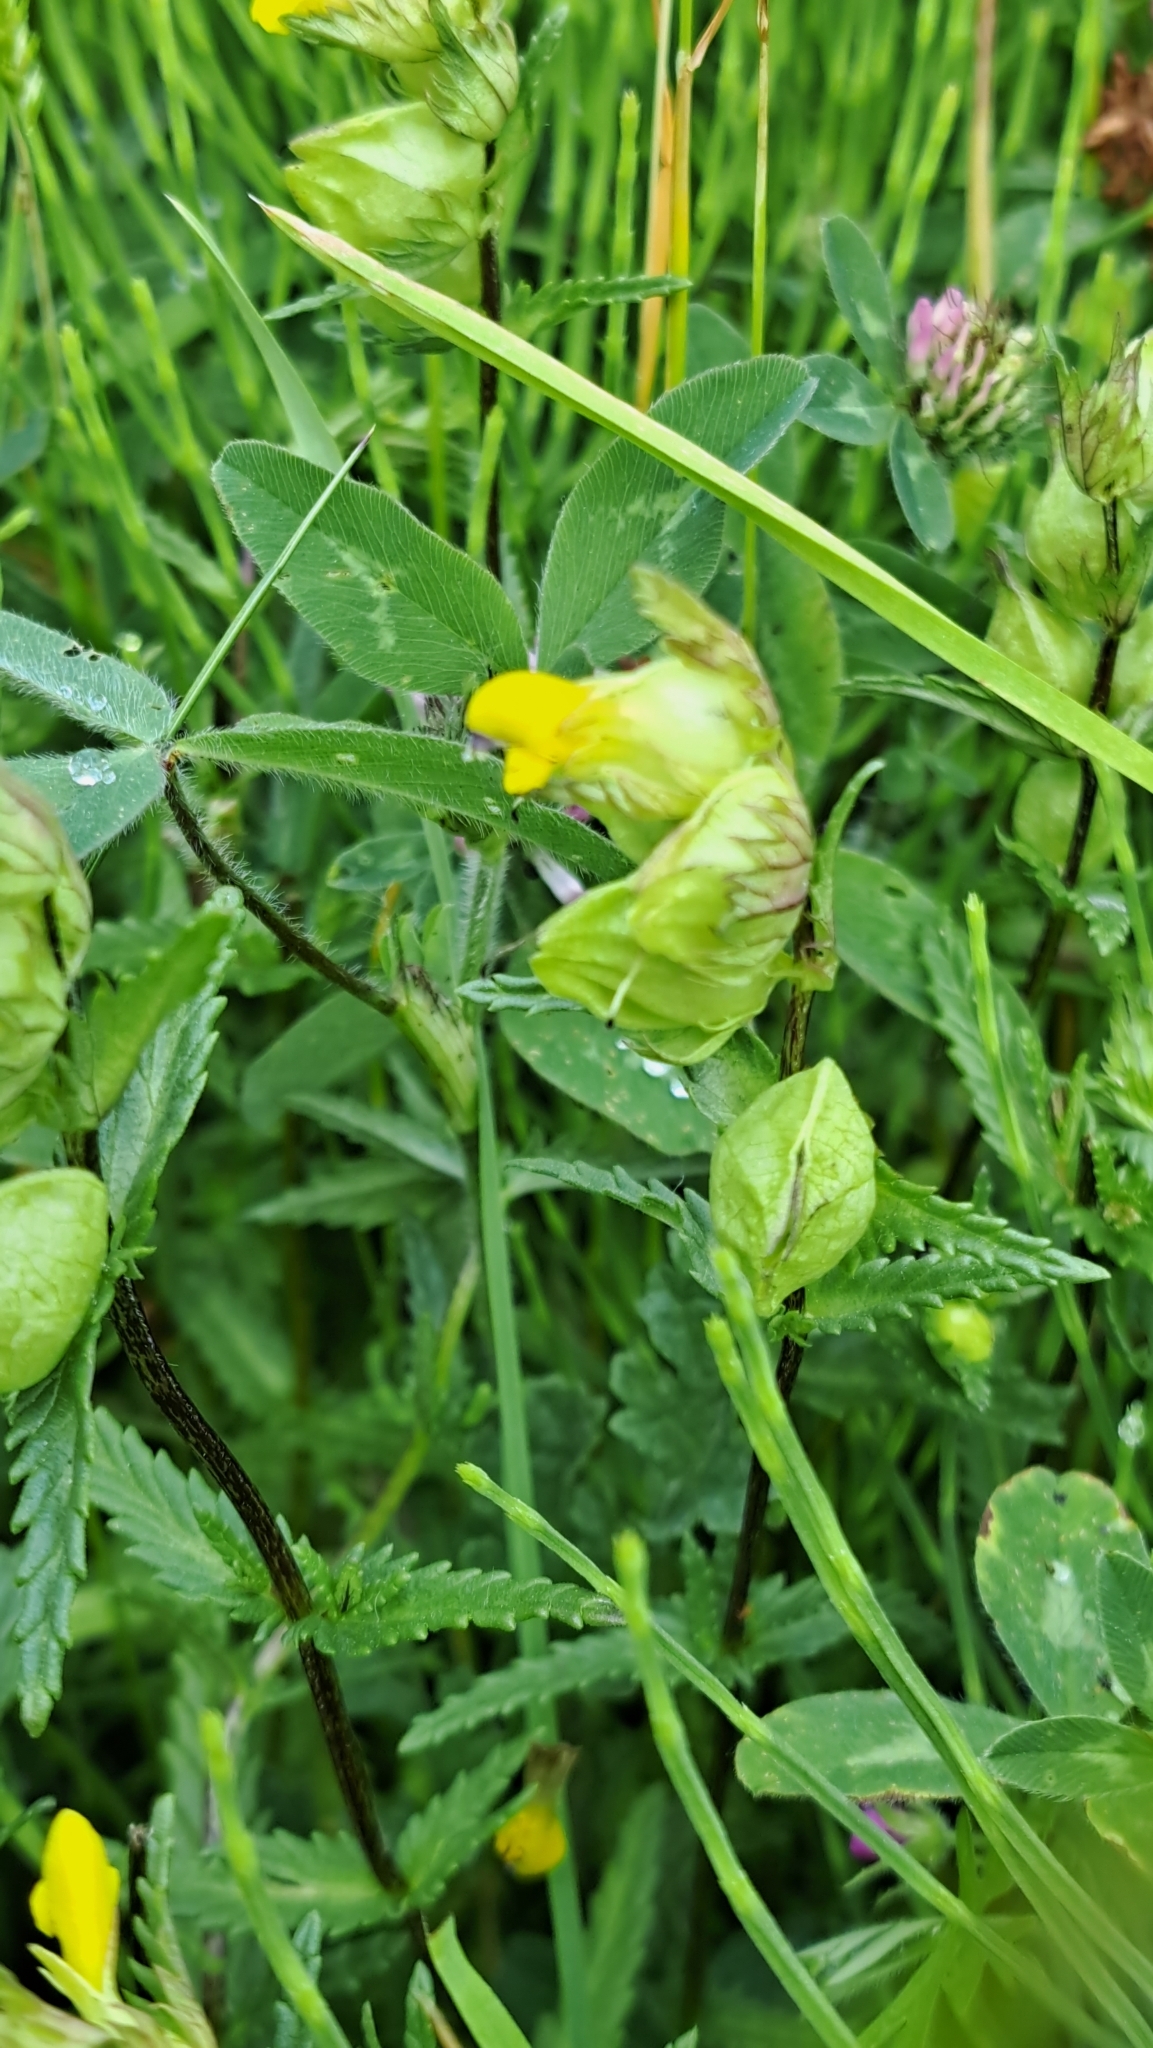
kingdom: Plantae
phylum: Tracheophyta
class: Magnoliopsida
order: Lamiales
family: Orobanchaceae
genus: Rhinanthus
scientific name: Rhinanthus minor
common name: Yellow-rattle
